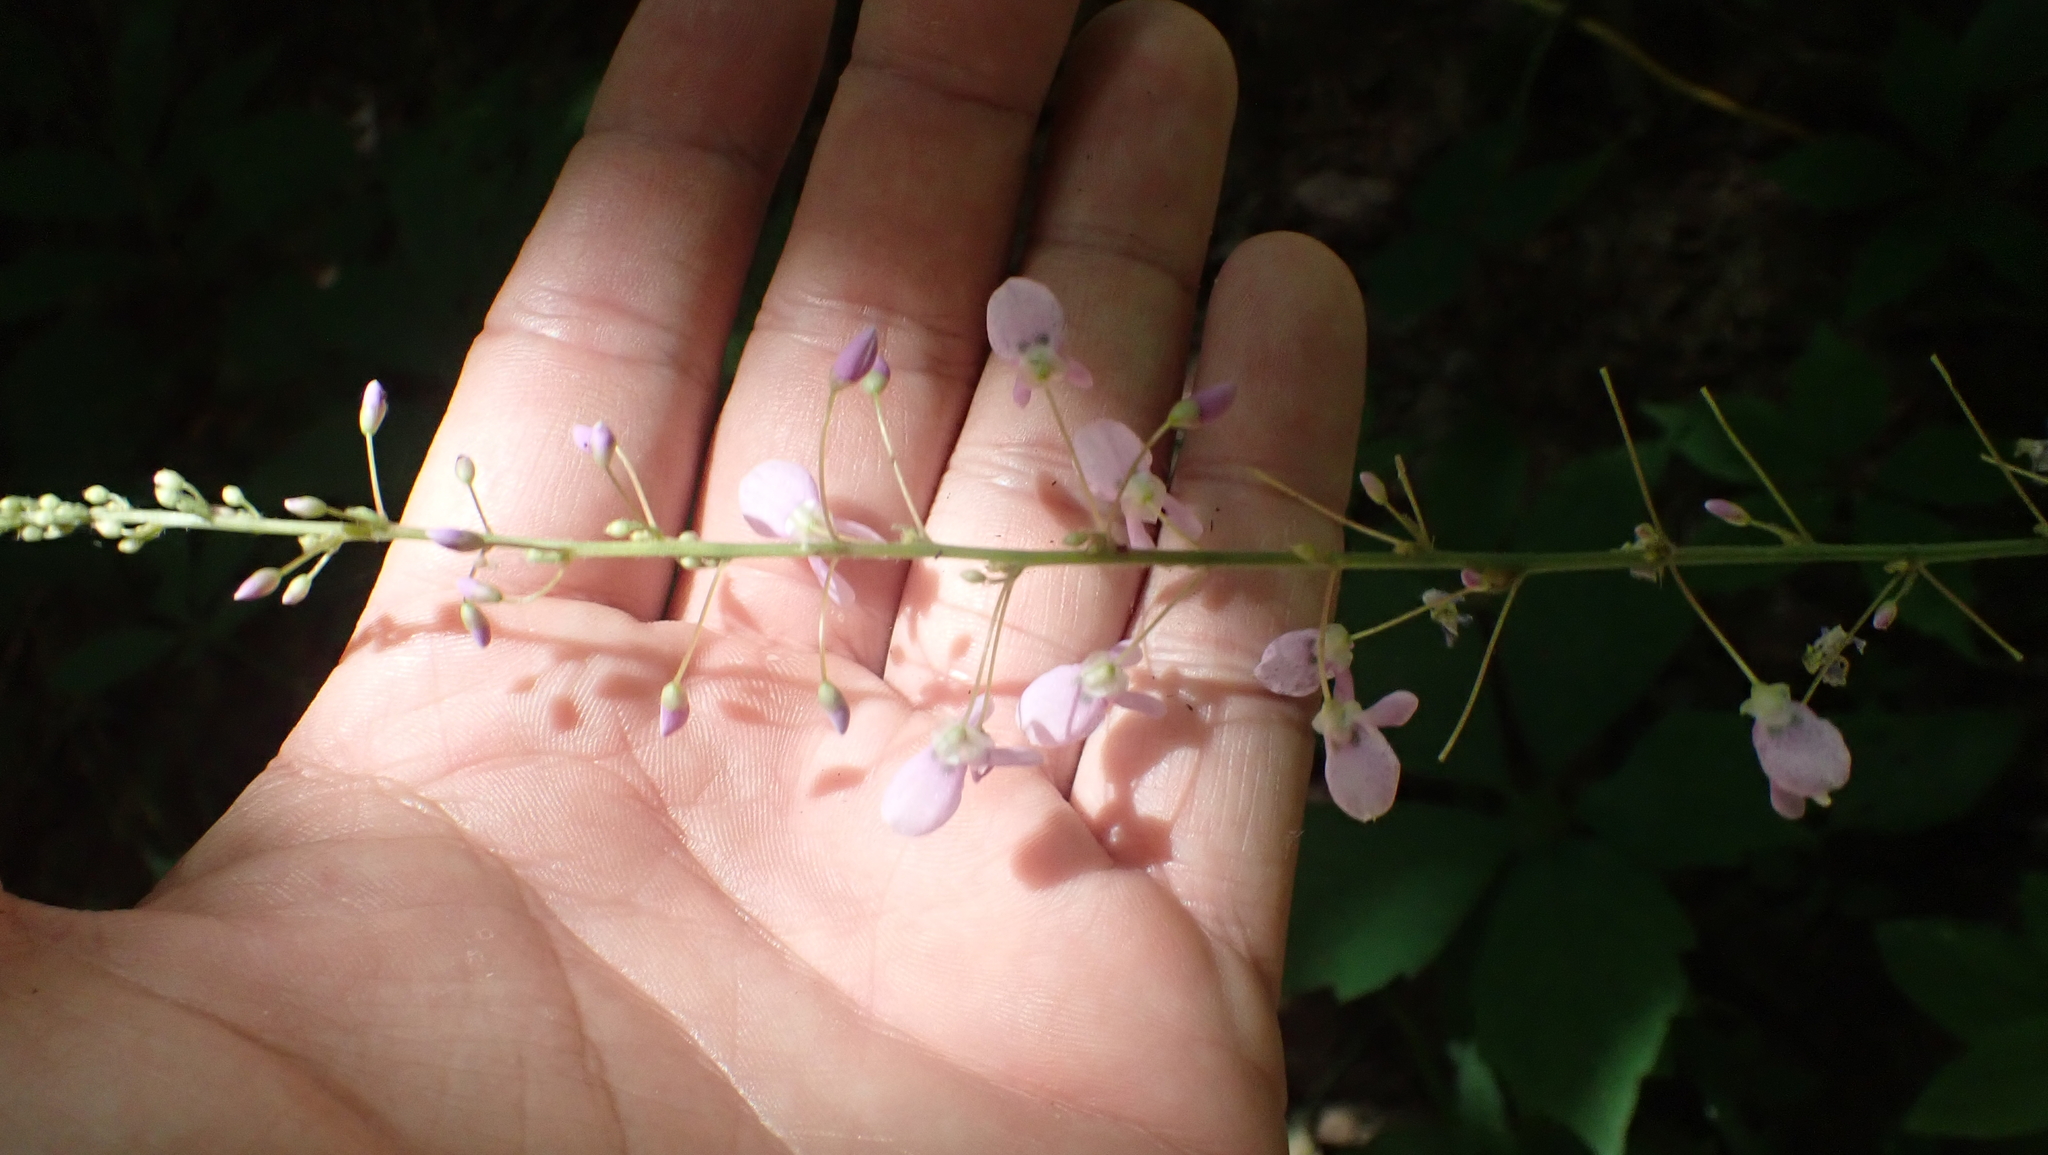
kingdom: Plantae
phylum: Tracheophyta
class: Magnoliopsida
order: Fabales
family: Fabaceae
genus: Hylodesmum
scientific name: Hylodesmum nudiflorum
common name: Bare-stemmed tick-trefoil
